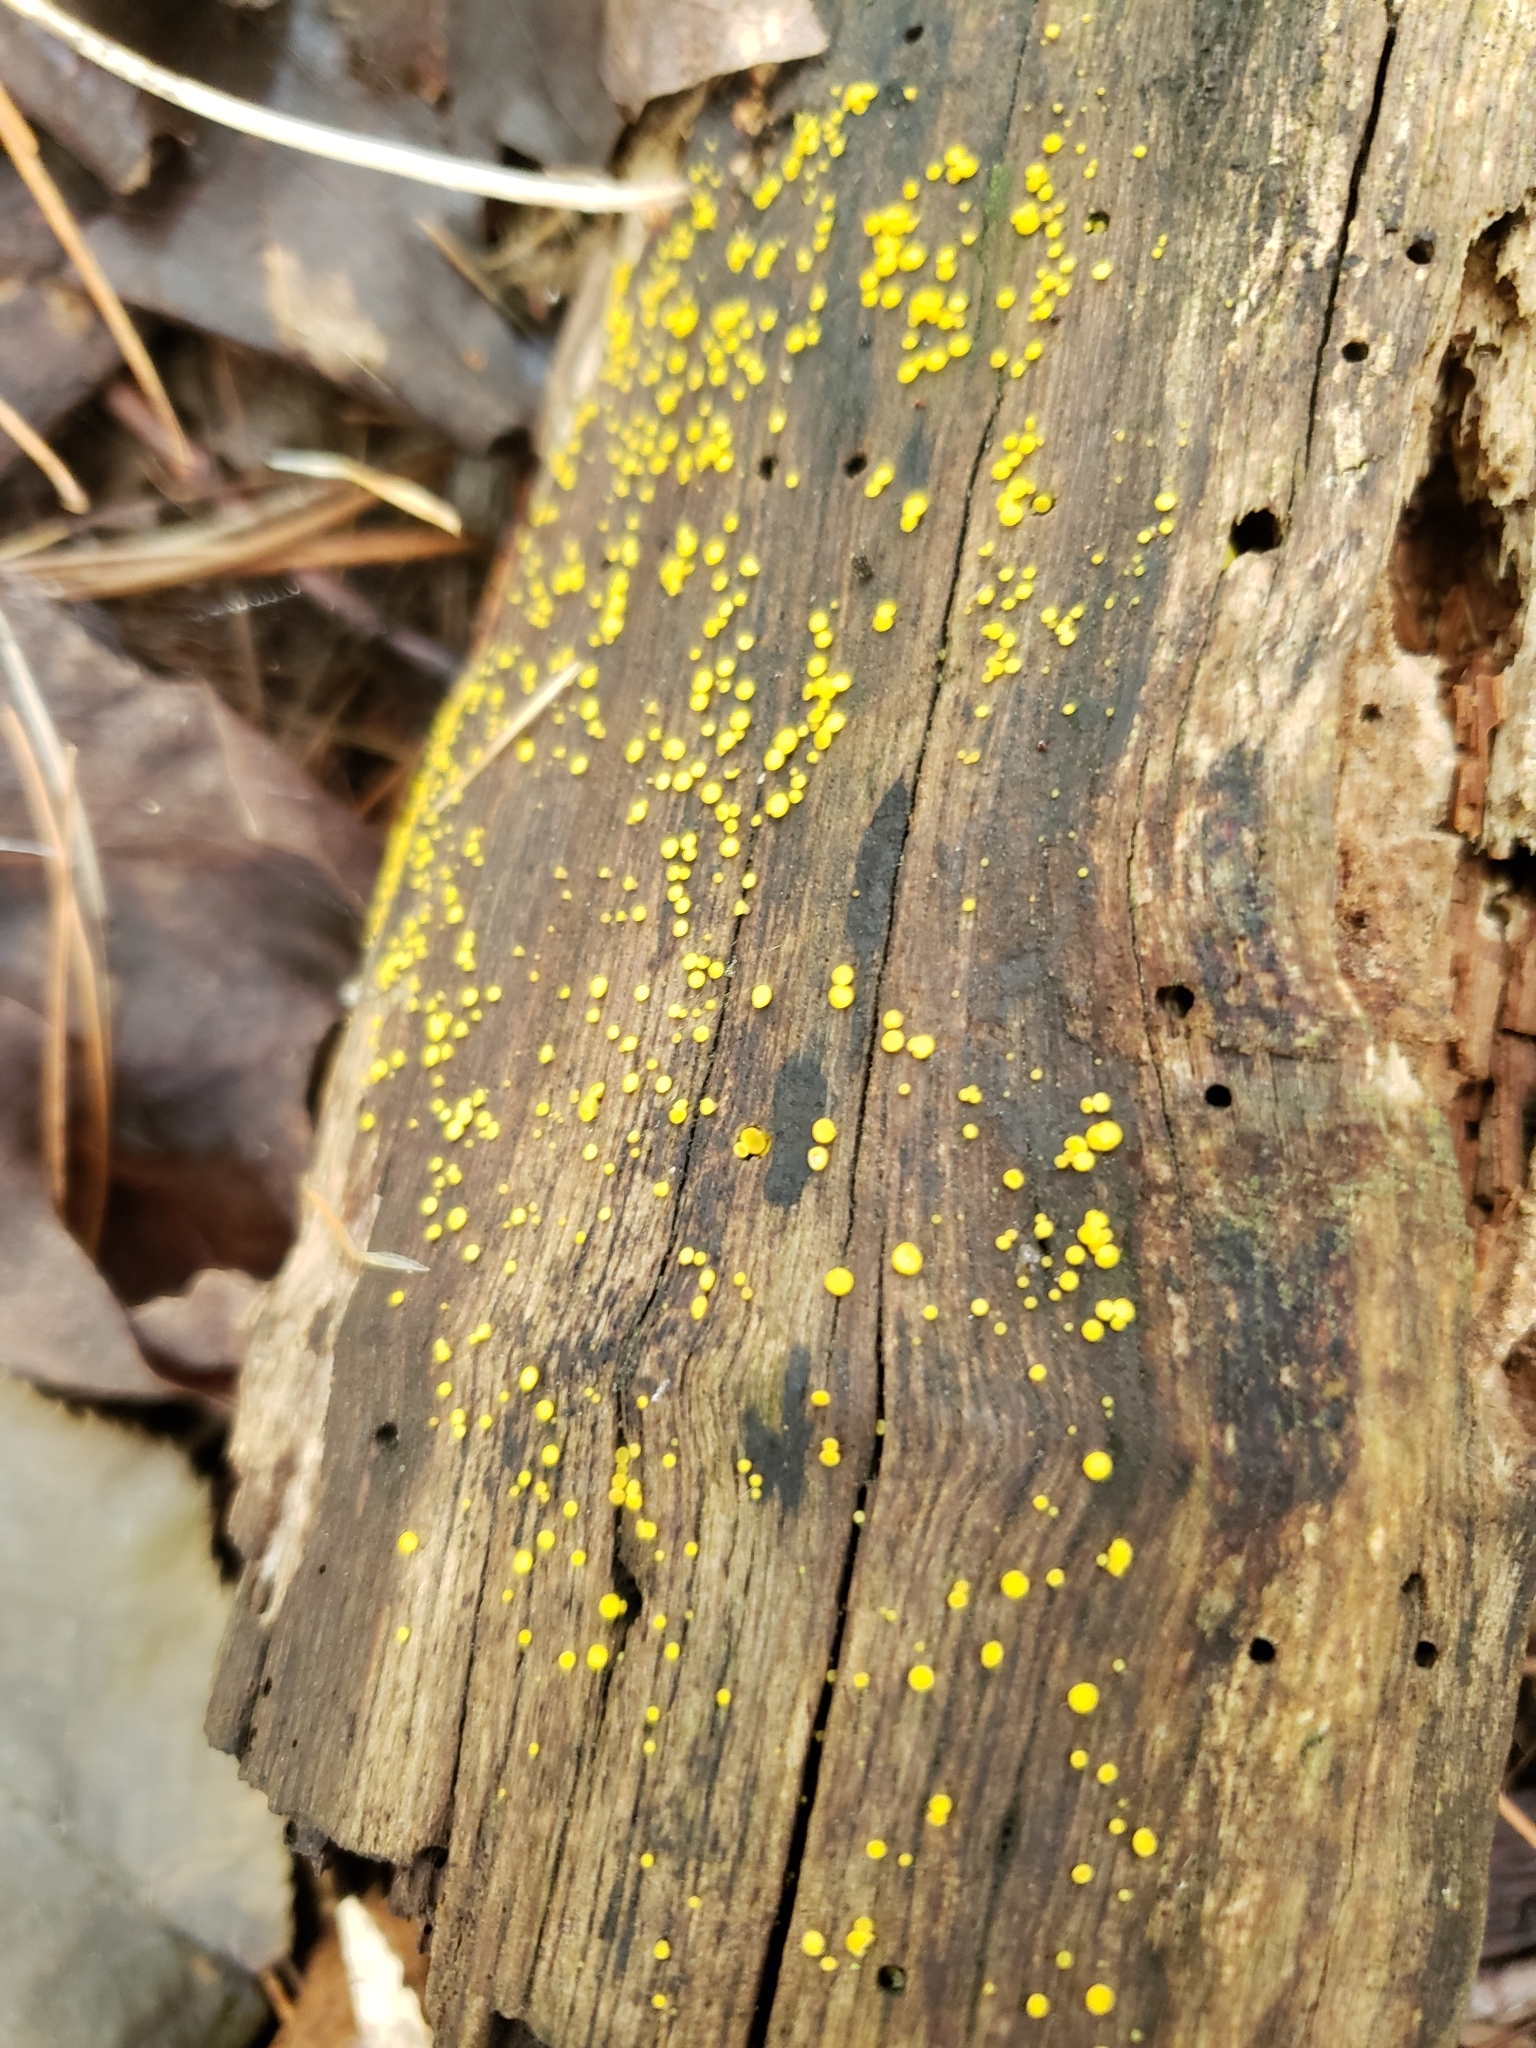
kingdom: Fungi
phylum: Ascomycota
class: Leotiomycetes
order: Helotiales
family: Pezizellaceae
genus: Calycina
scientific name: Calycina citrina
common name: Yellow fairy cups
